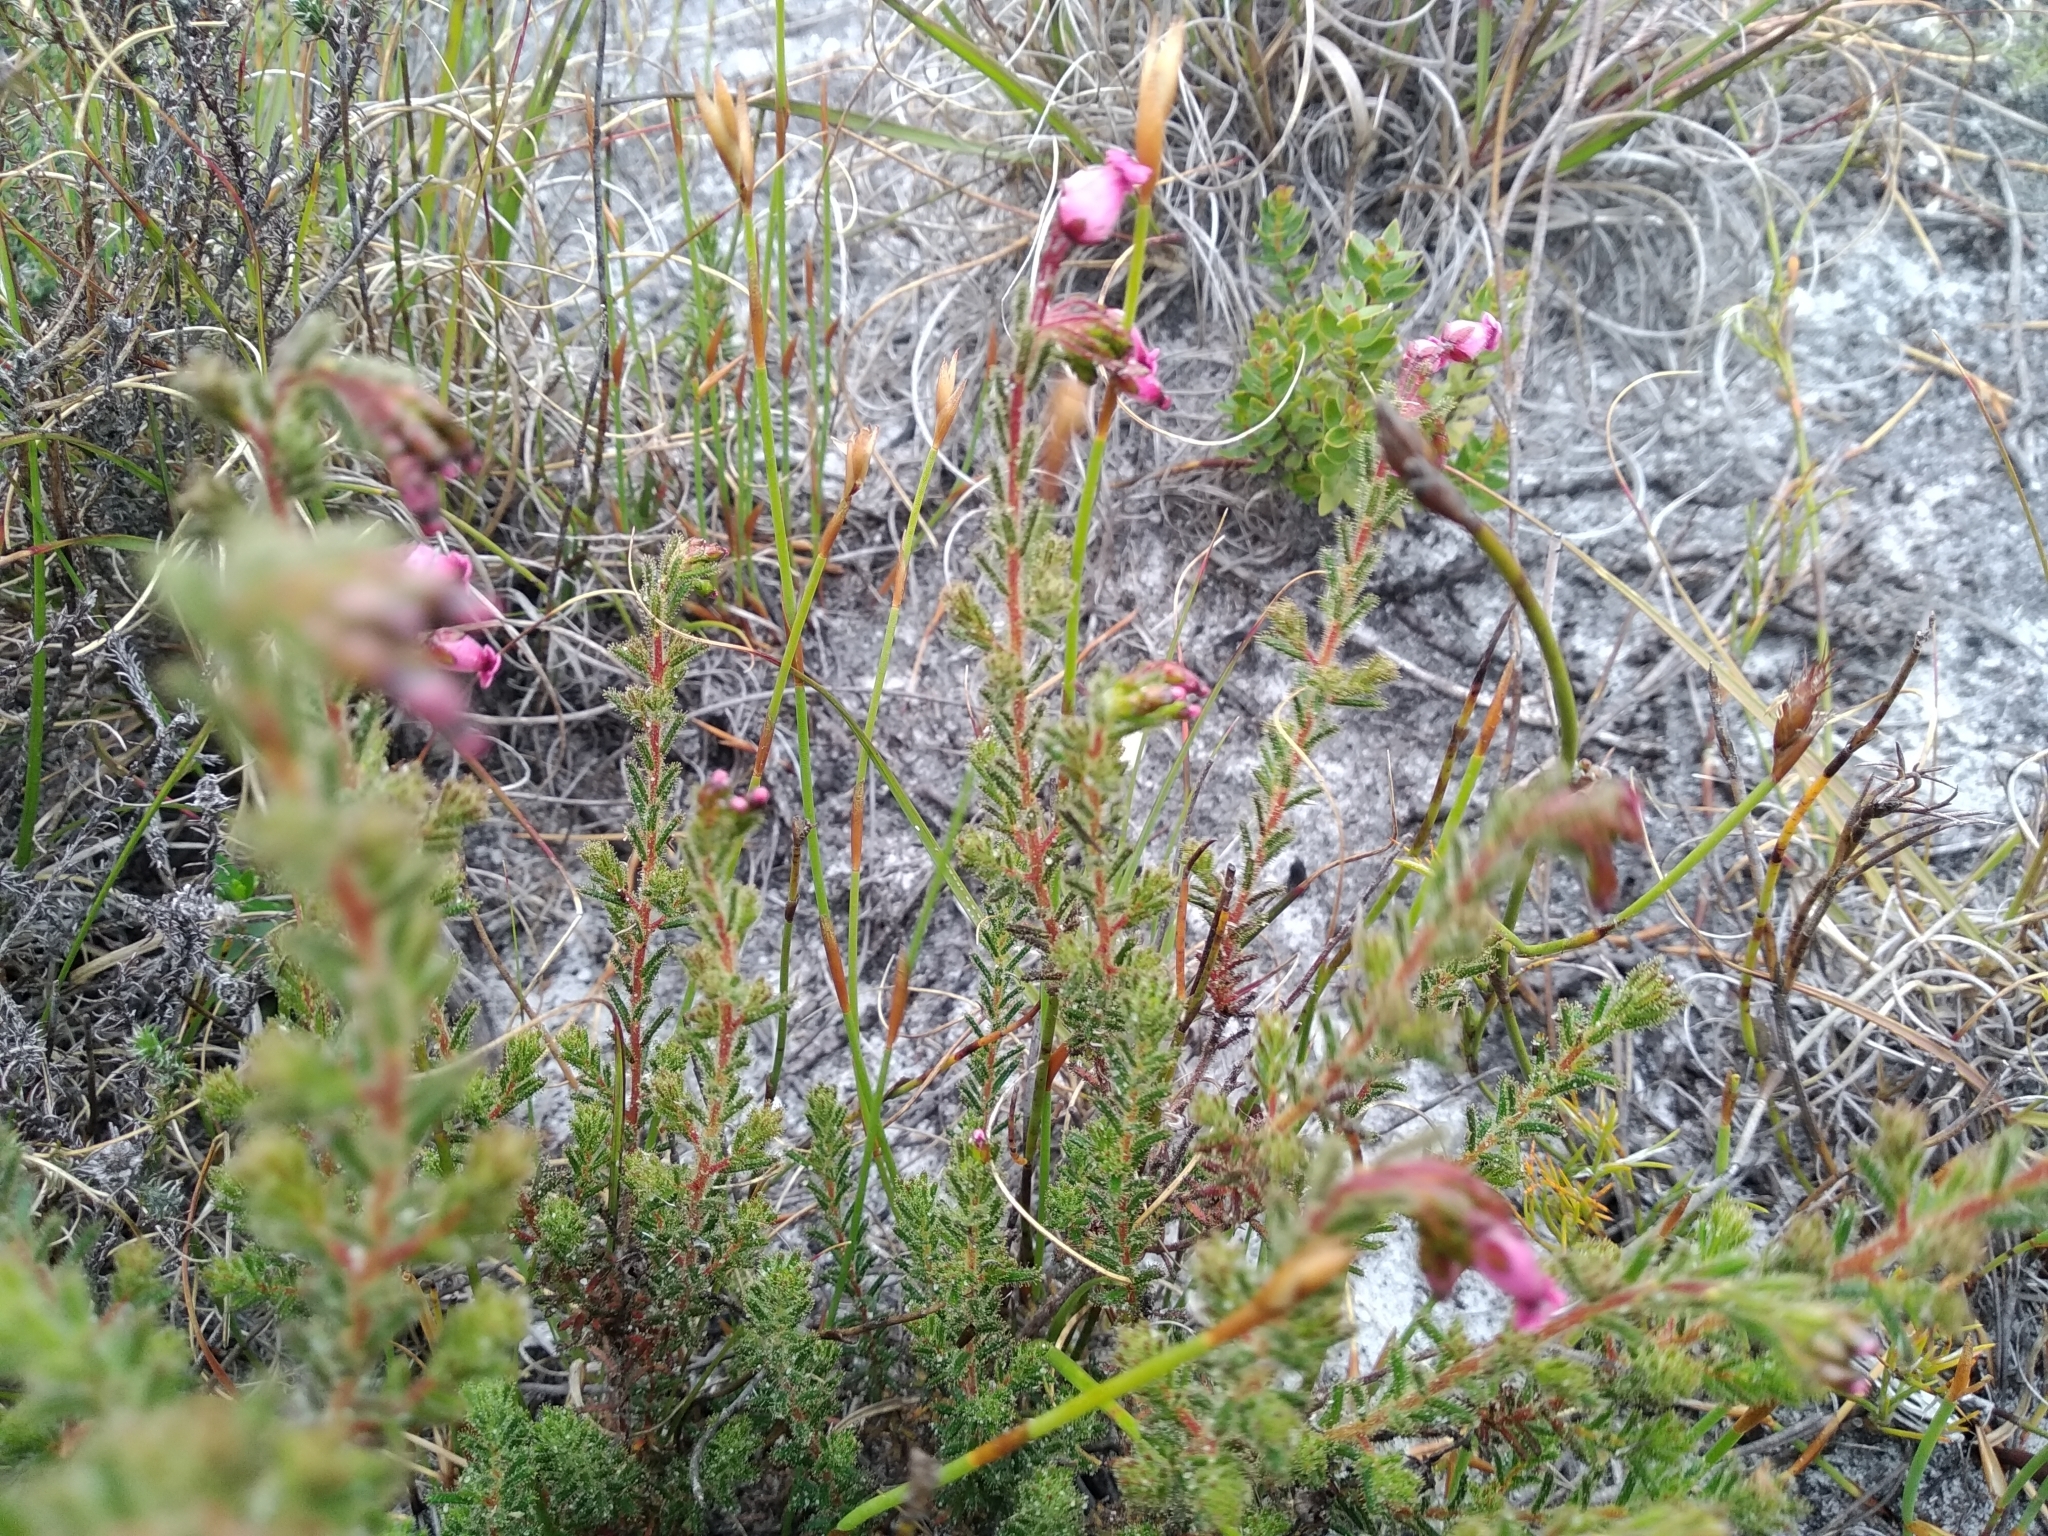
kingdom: Plantae
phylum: Tracheophyta
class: Magnoliopsida
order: Ericales
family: Ericaceae
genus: Erica
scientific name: Erica glutinosa
